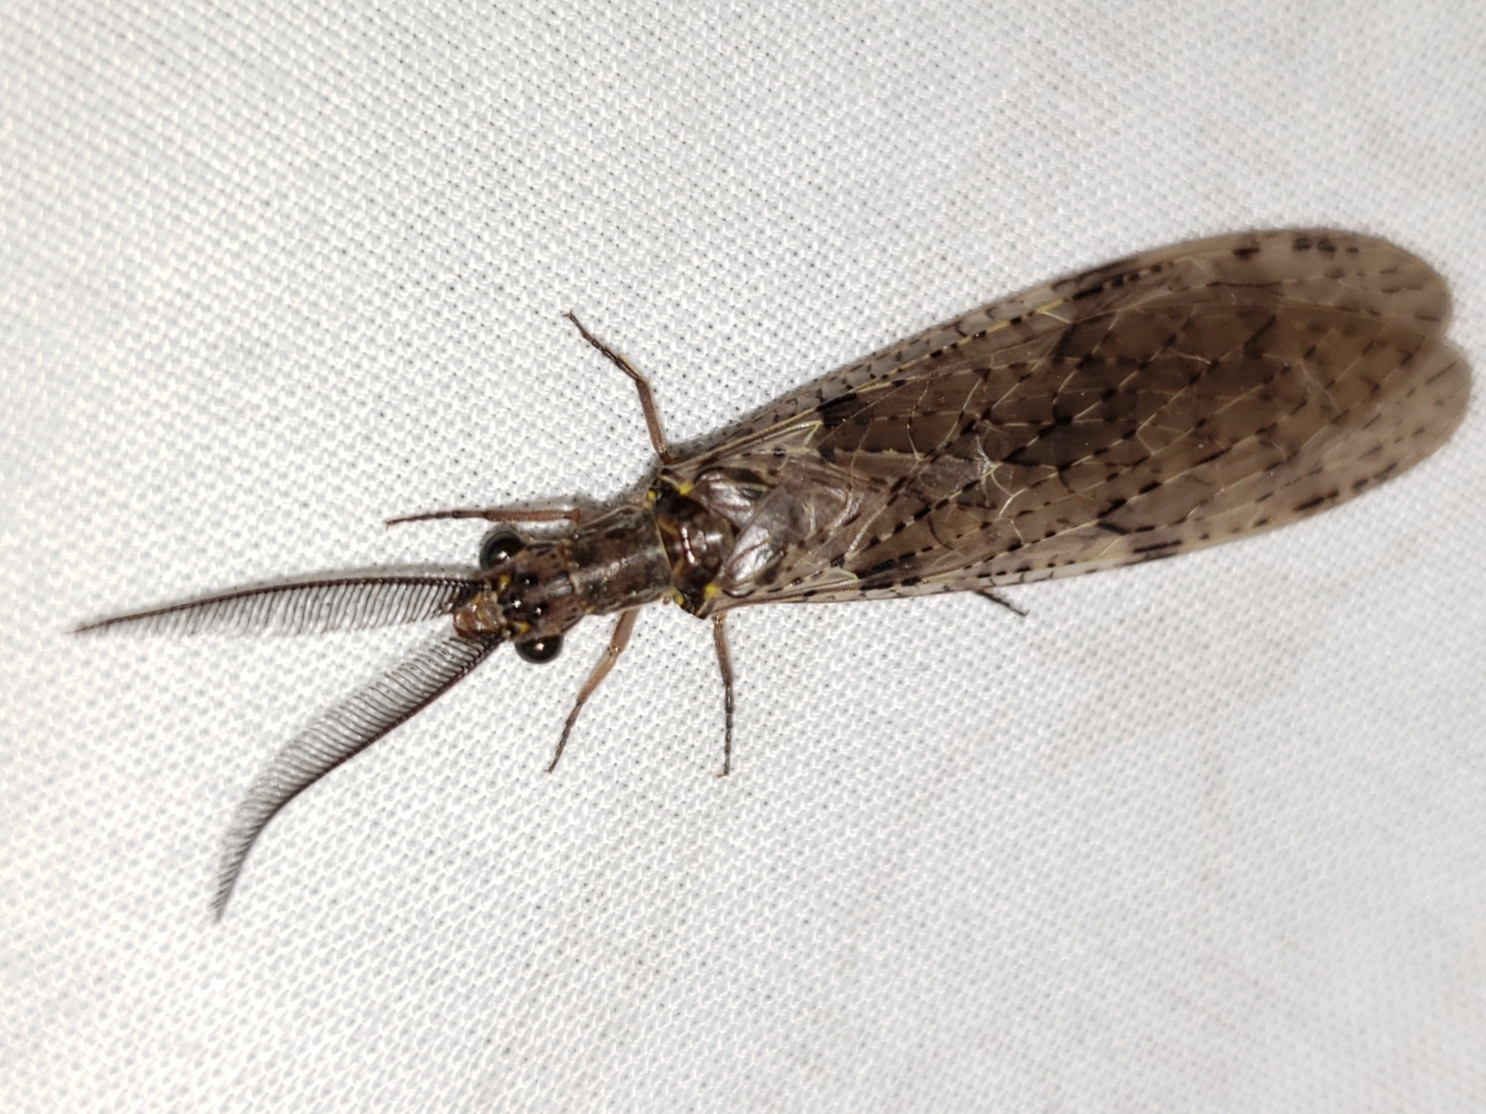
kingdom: Animalia
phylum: Arthropoda
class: Insecta
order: Megaloptera
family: Corydalidae
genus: Chauliodes
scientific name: Chauliodes rastricornis
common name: Spring fishfly
